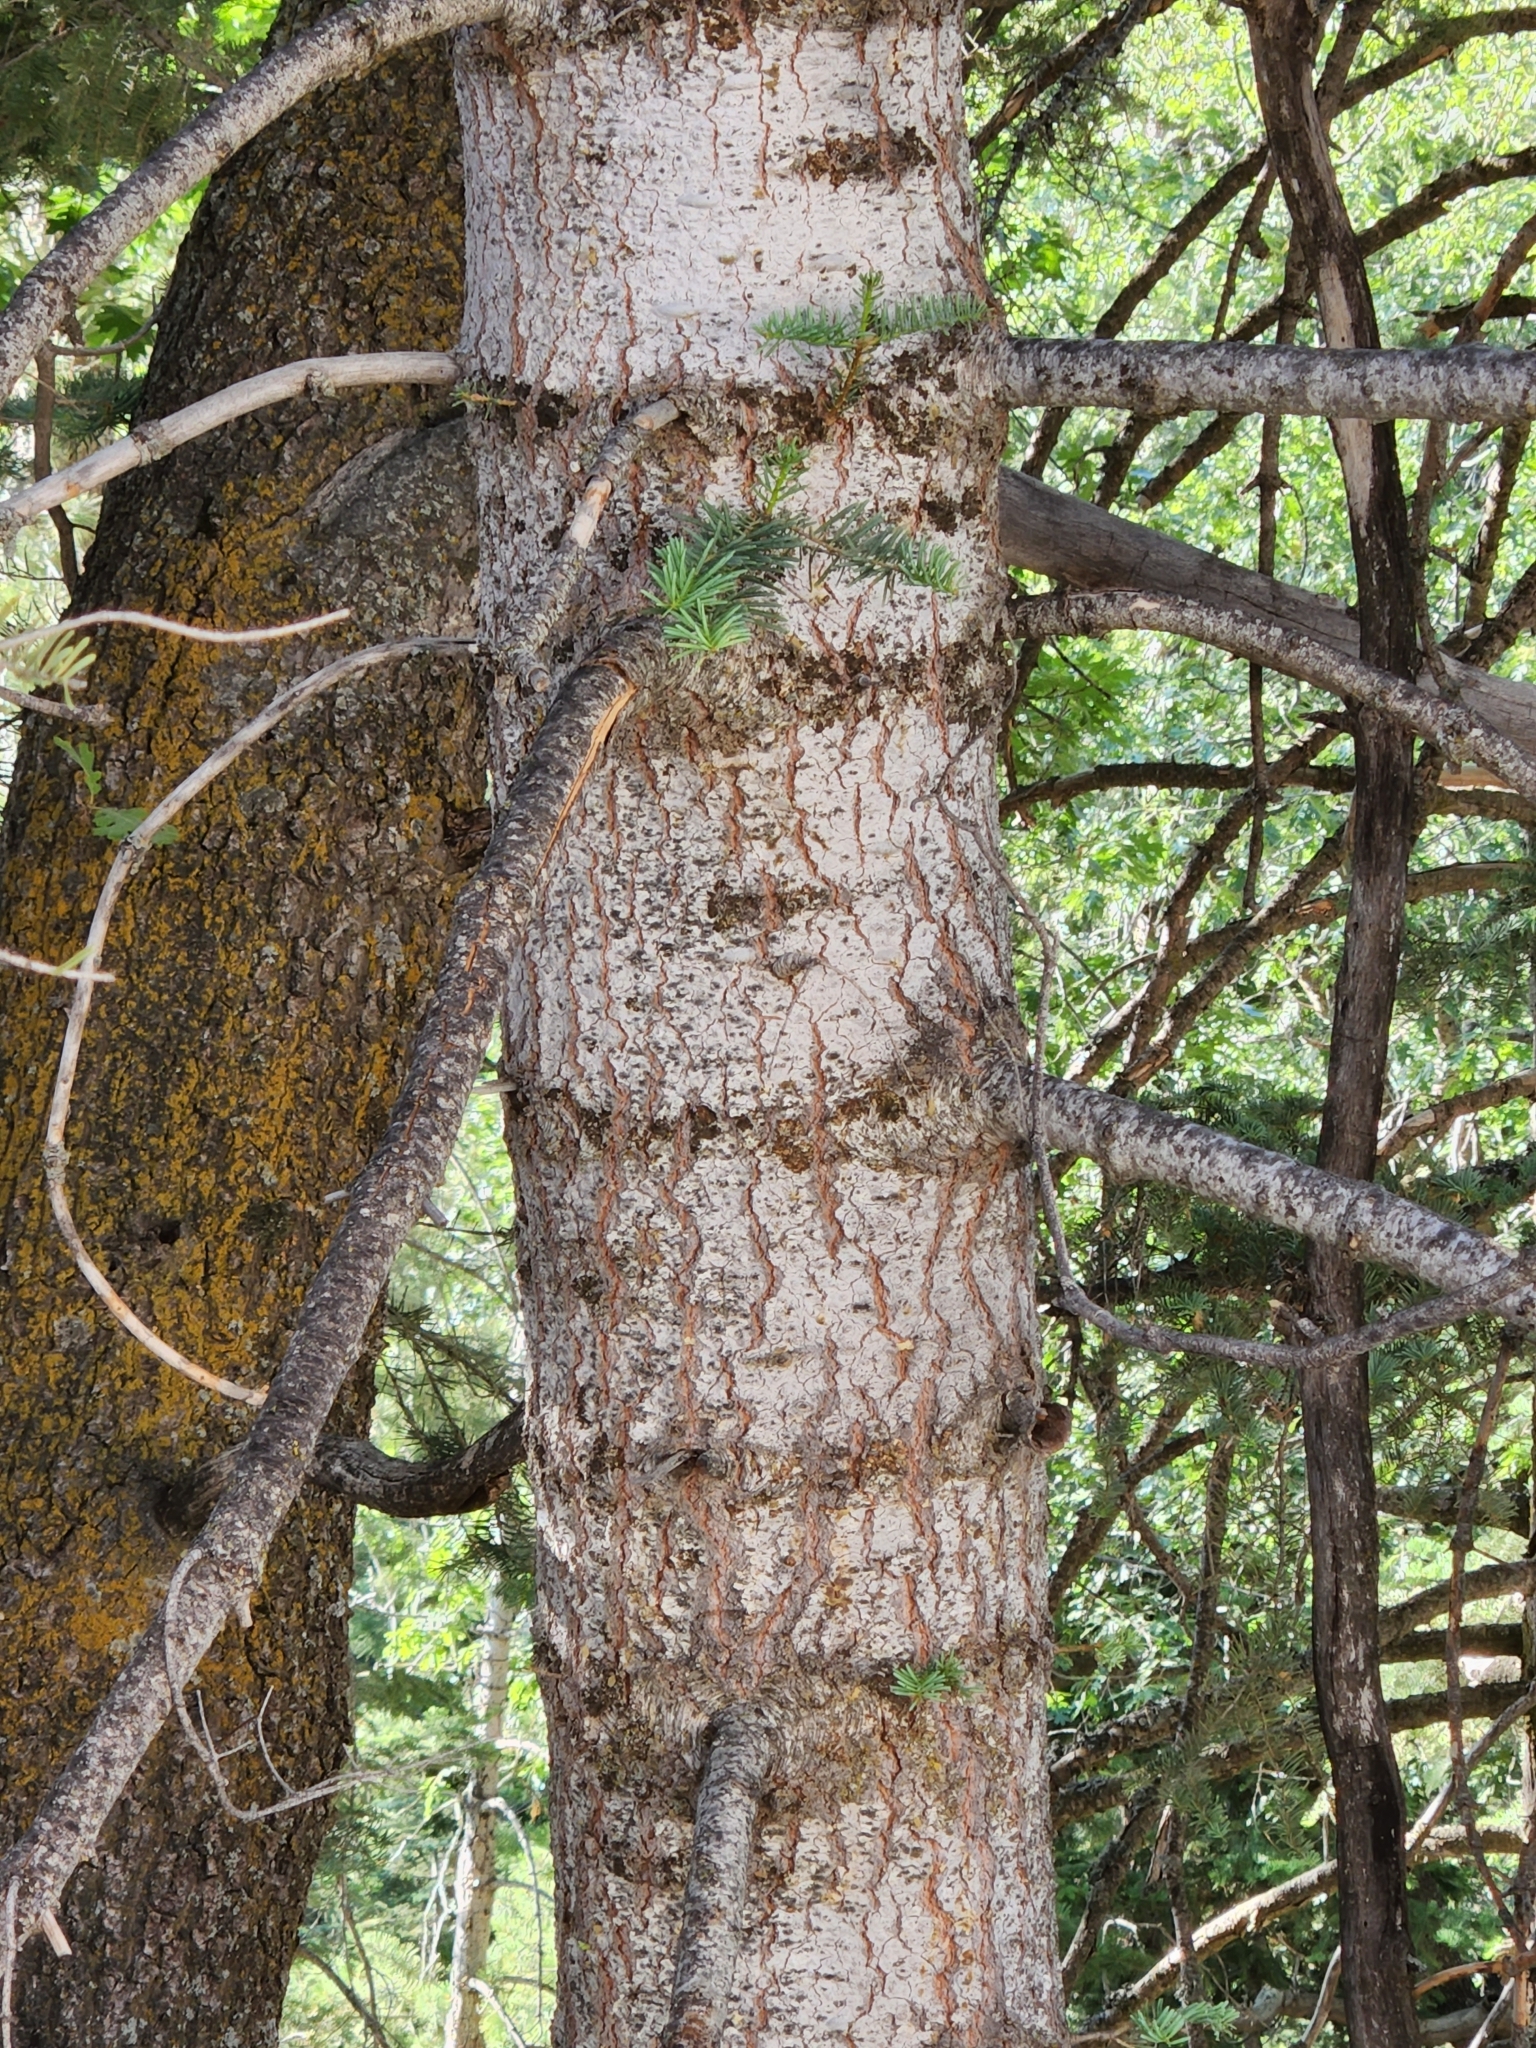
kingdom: Plantae
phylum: Tracheophyta
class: Pinopsida
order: Pinales
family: Pinaceae
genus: Abies
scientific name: Abies concolor
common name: Colorado fir
